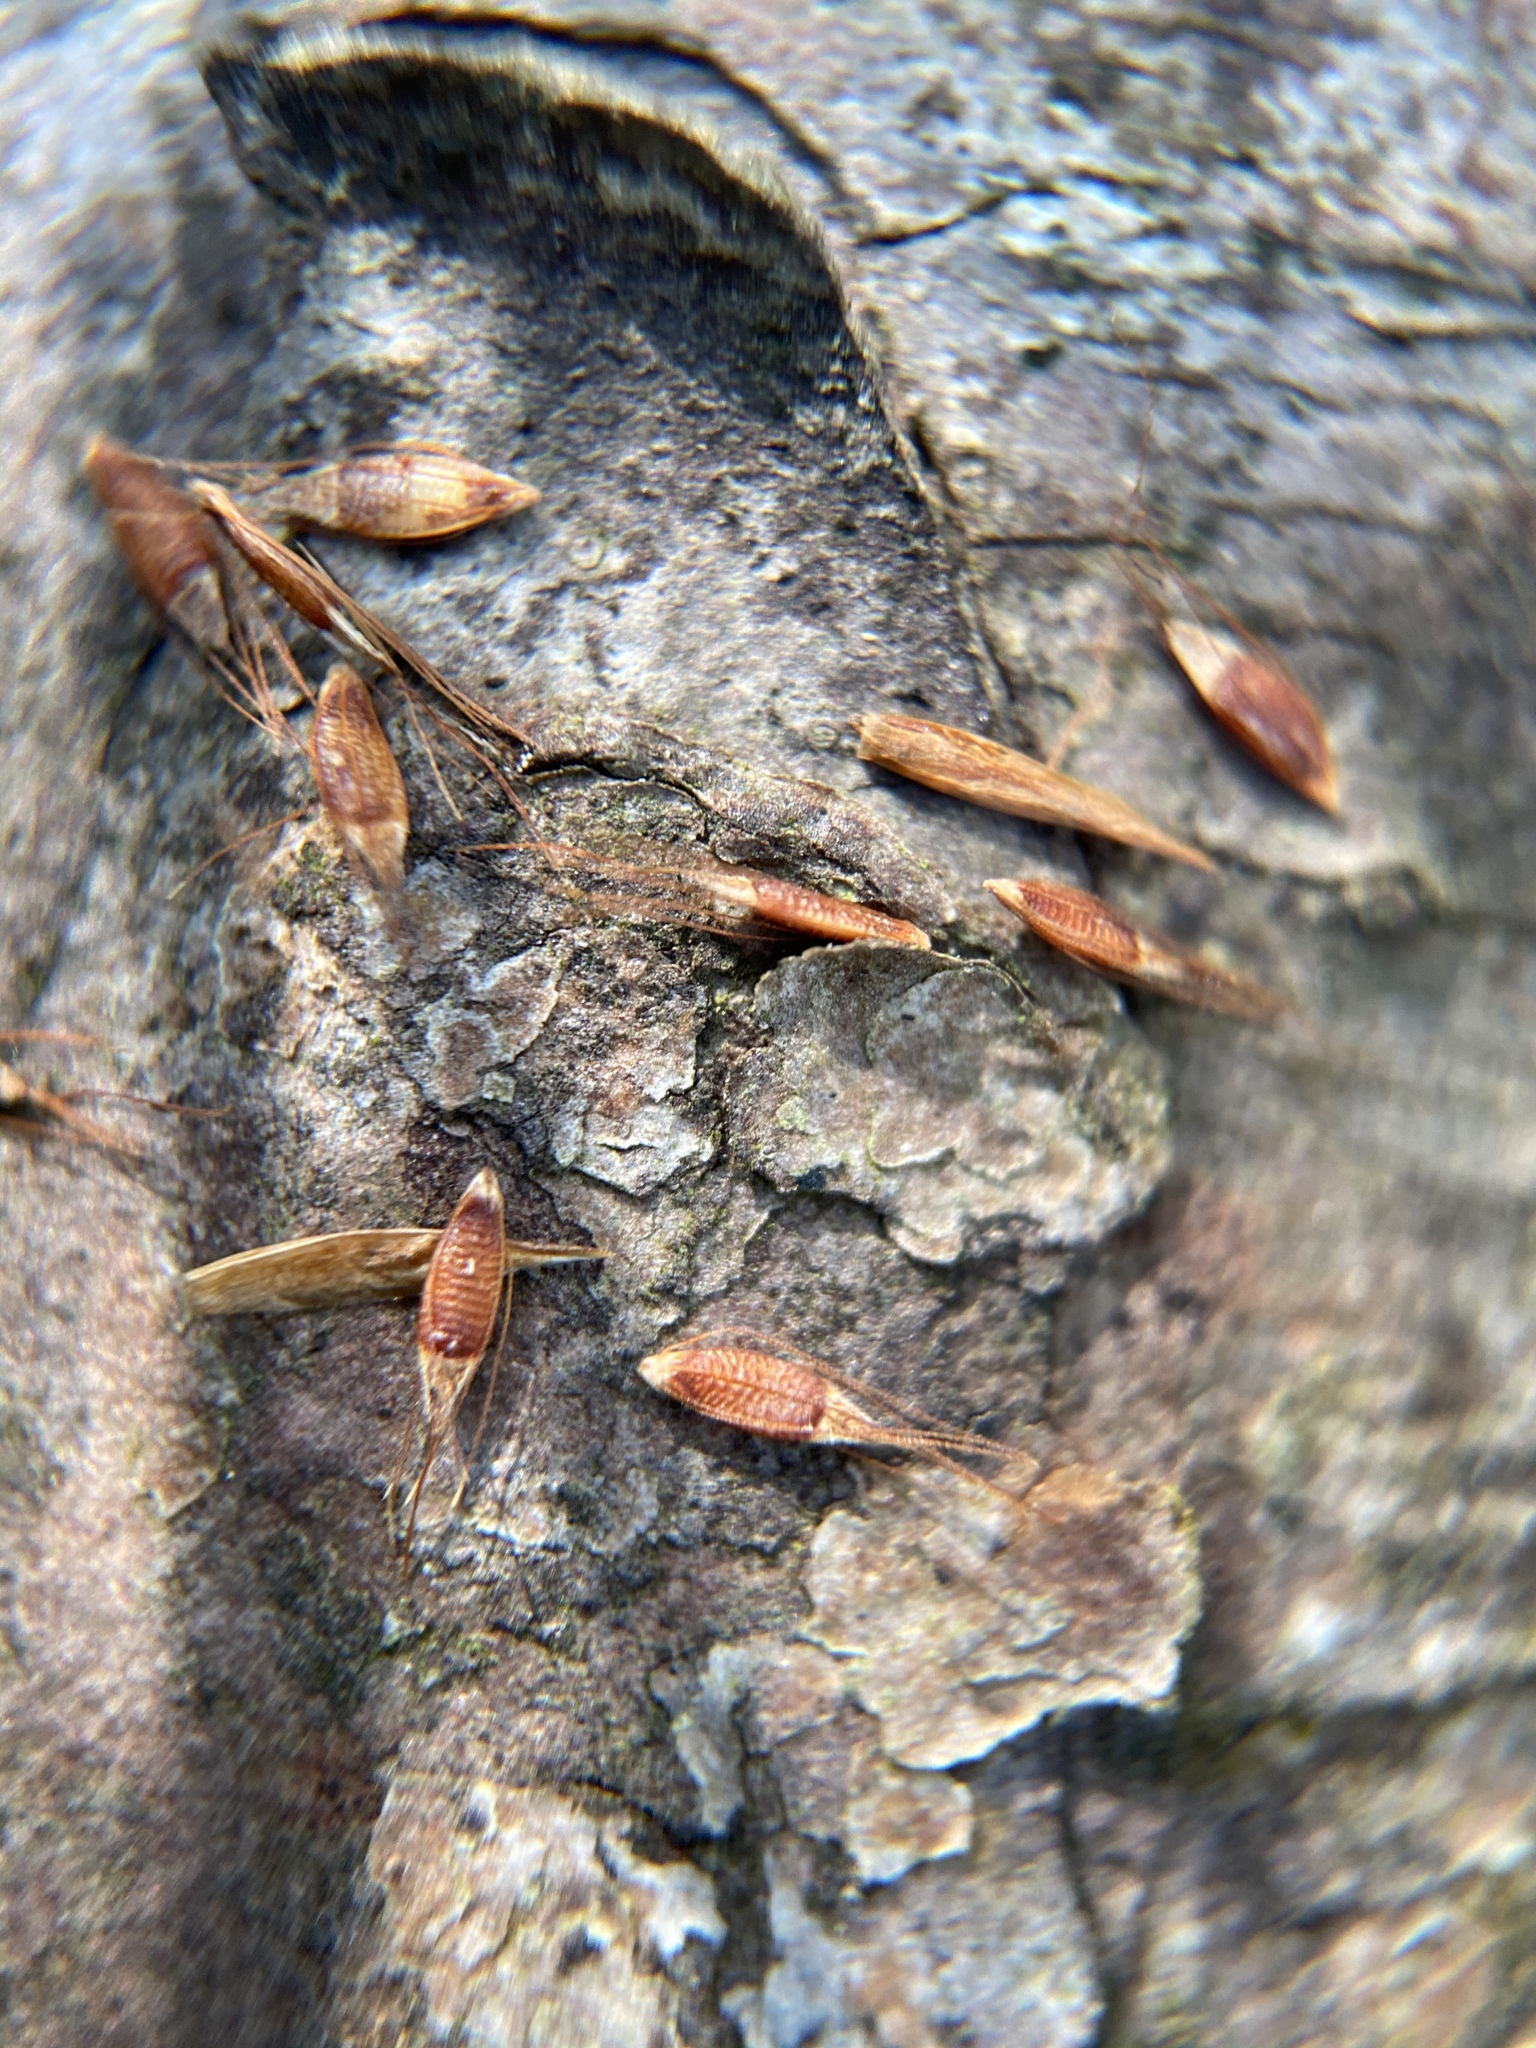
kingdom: Plantae
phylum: Tracheophyta
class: Liliopsida
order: Poales
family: Cyperaceae
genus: Rhynchospora
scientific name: Rhynchospora inexpansa
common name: Nodding beaksedge
